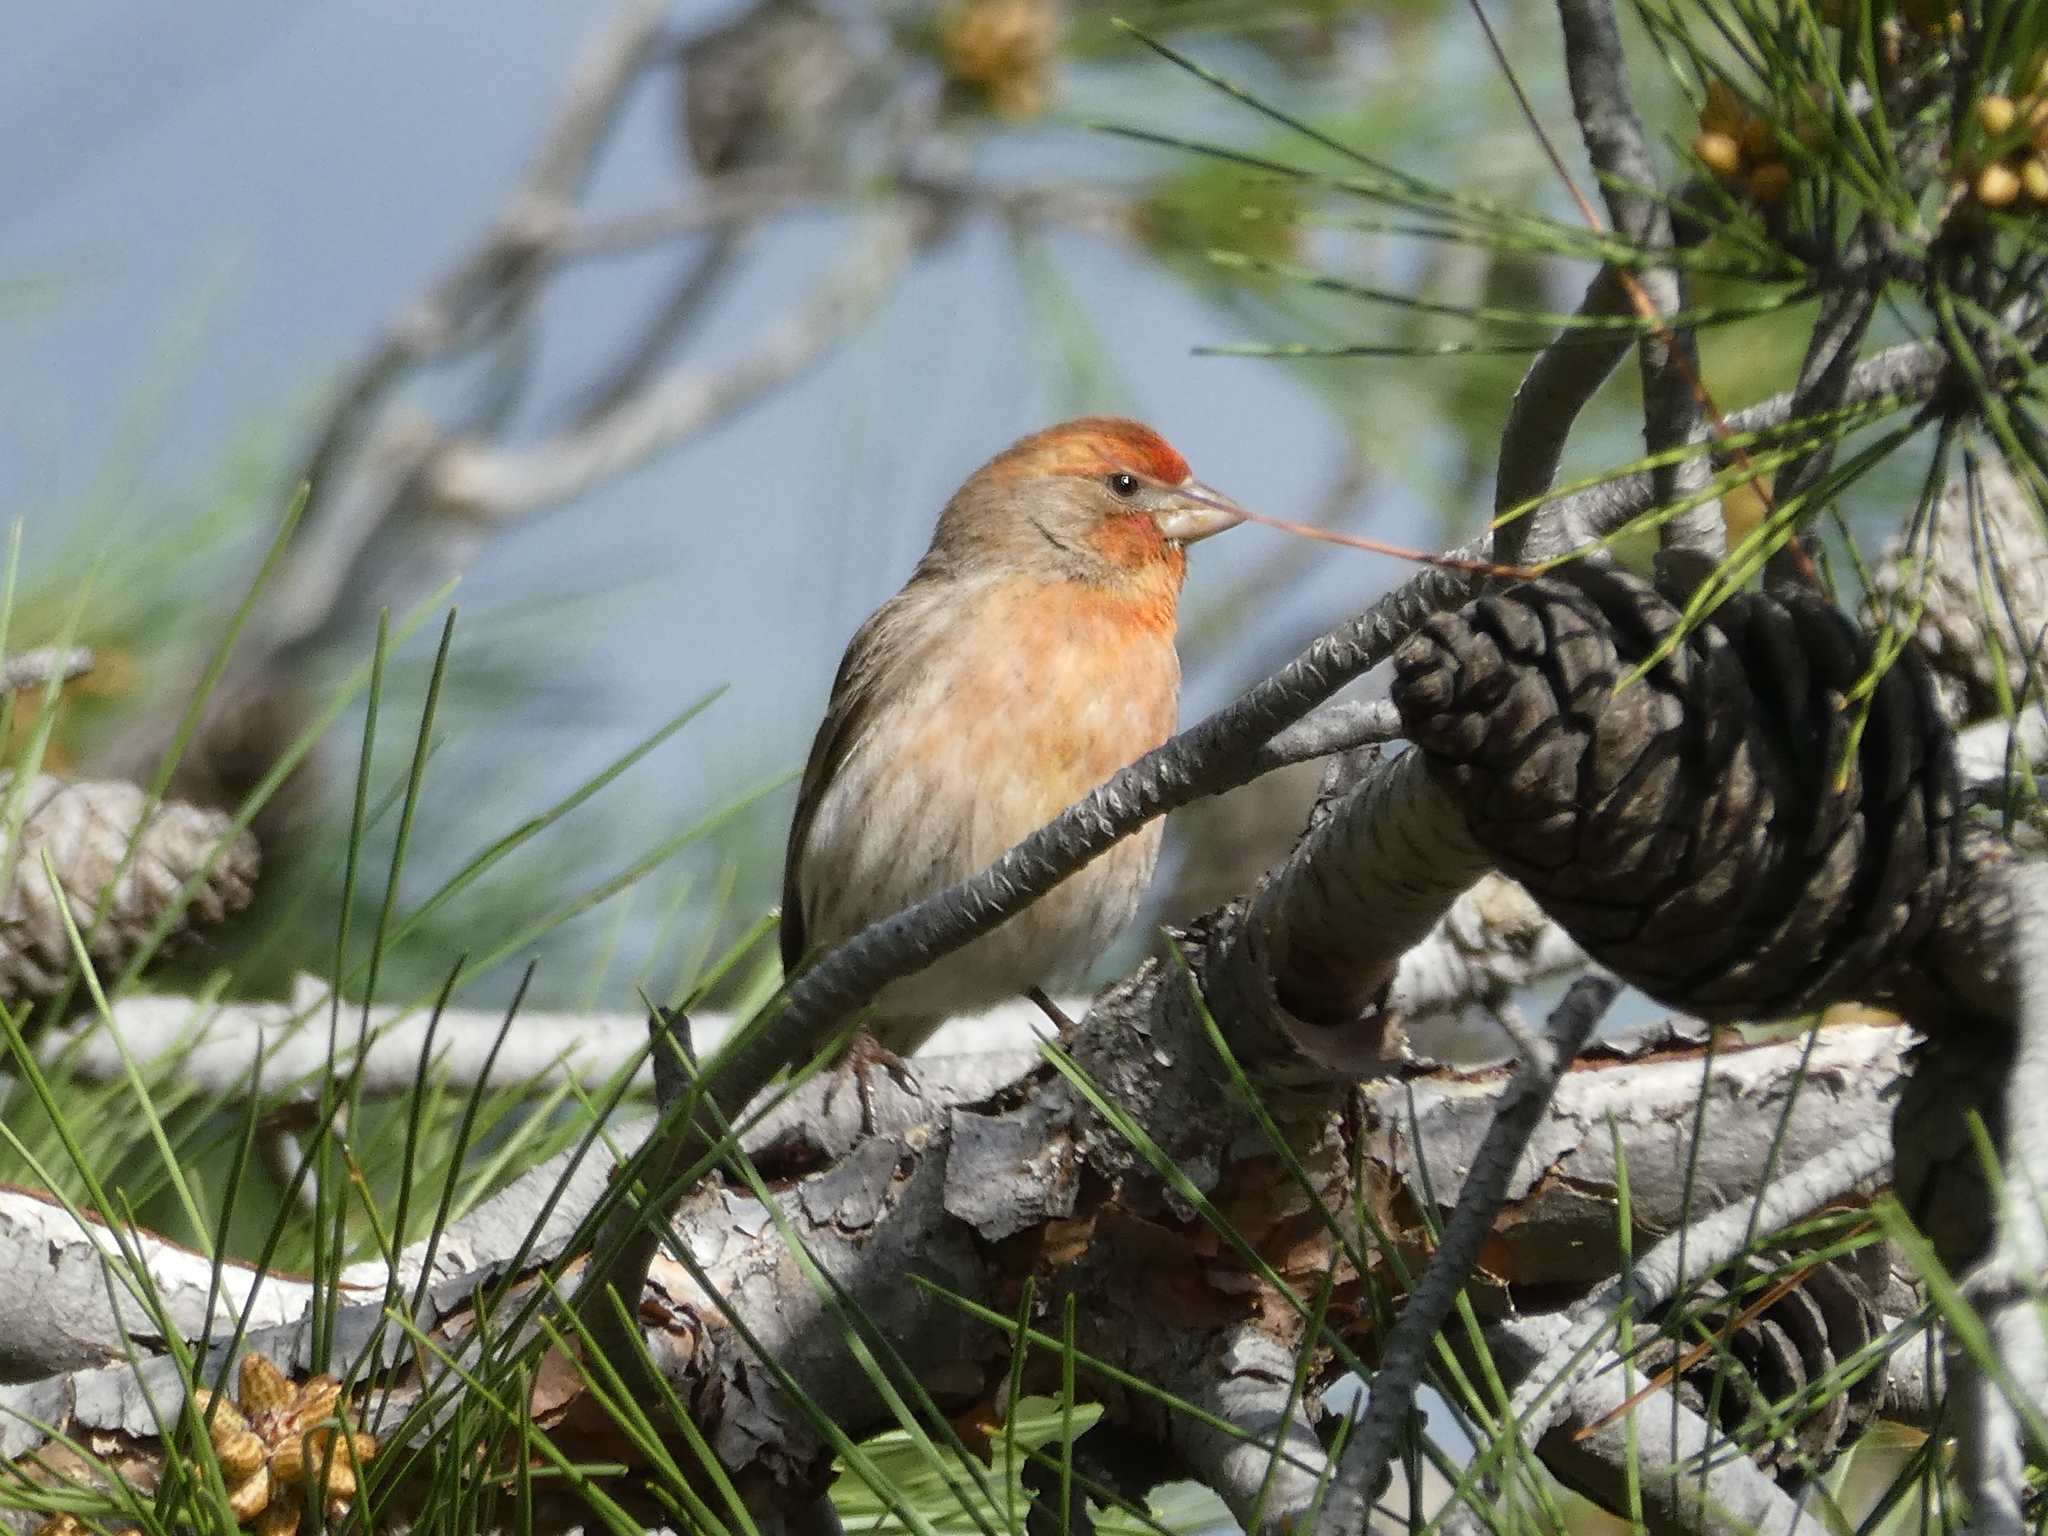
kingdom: Animalia
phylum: Chordata
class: Aves
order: Passeriformes
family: Fringillidae
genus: Haemorhous
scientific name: Haemorhous mexicanus
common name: House finch
